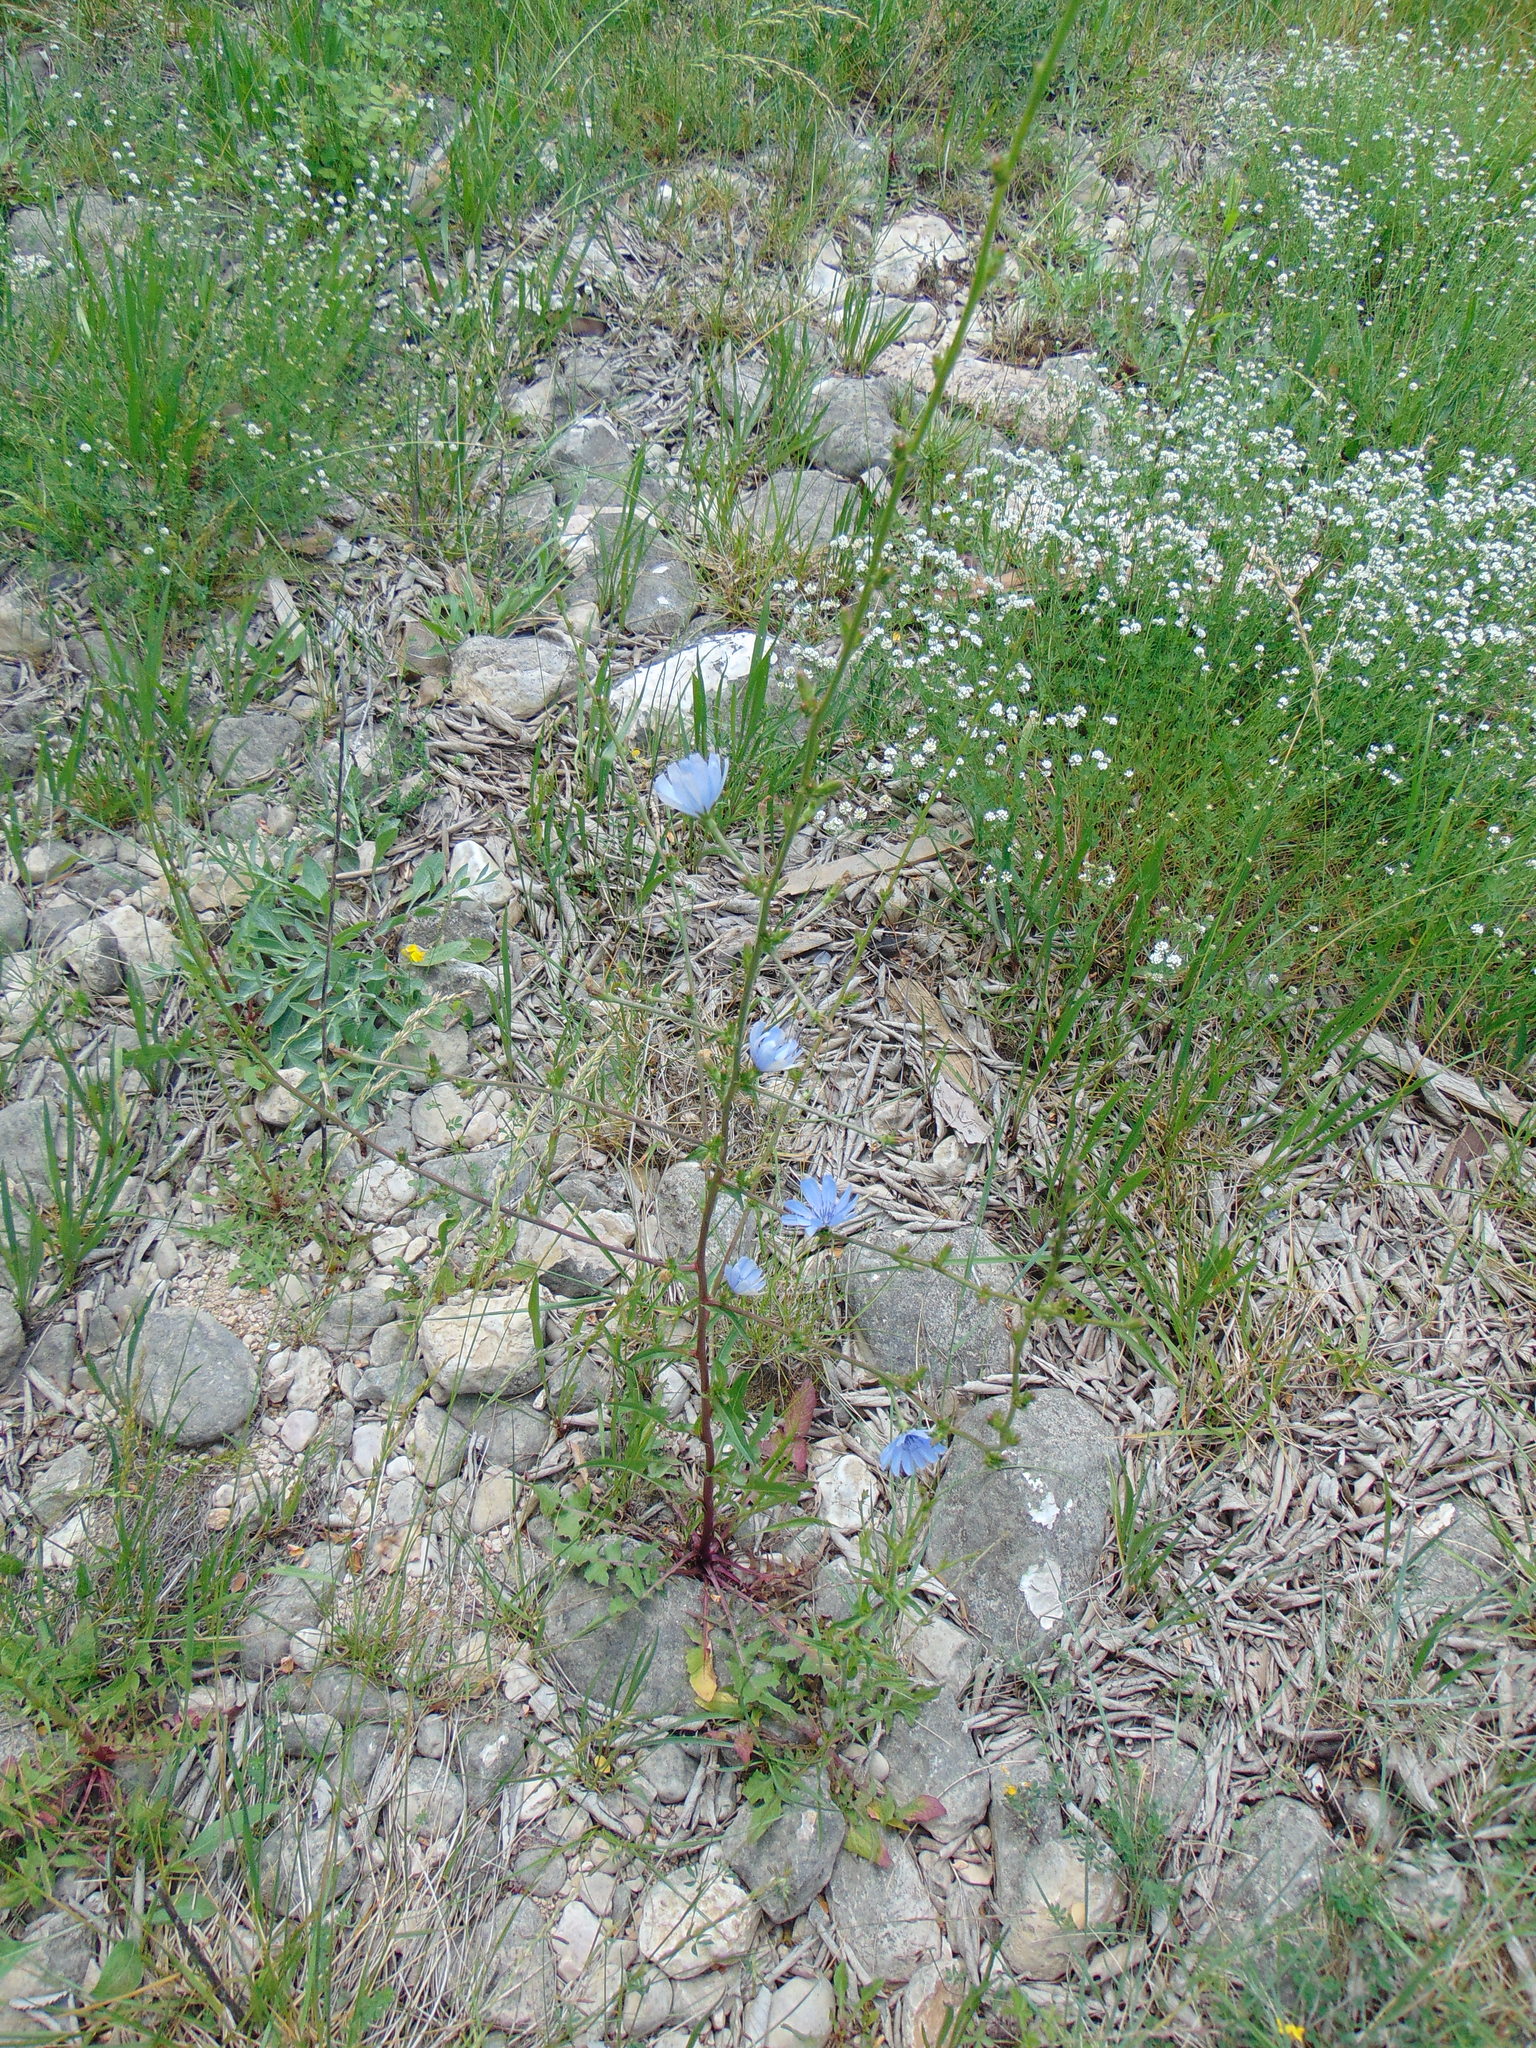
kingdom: Plantae
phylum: Tracheophyta
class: Magnoliopsida
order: Asterales
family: Asteraceae
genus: Cichorium
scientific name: Cichorium intybus
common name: Chicory
